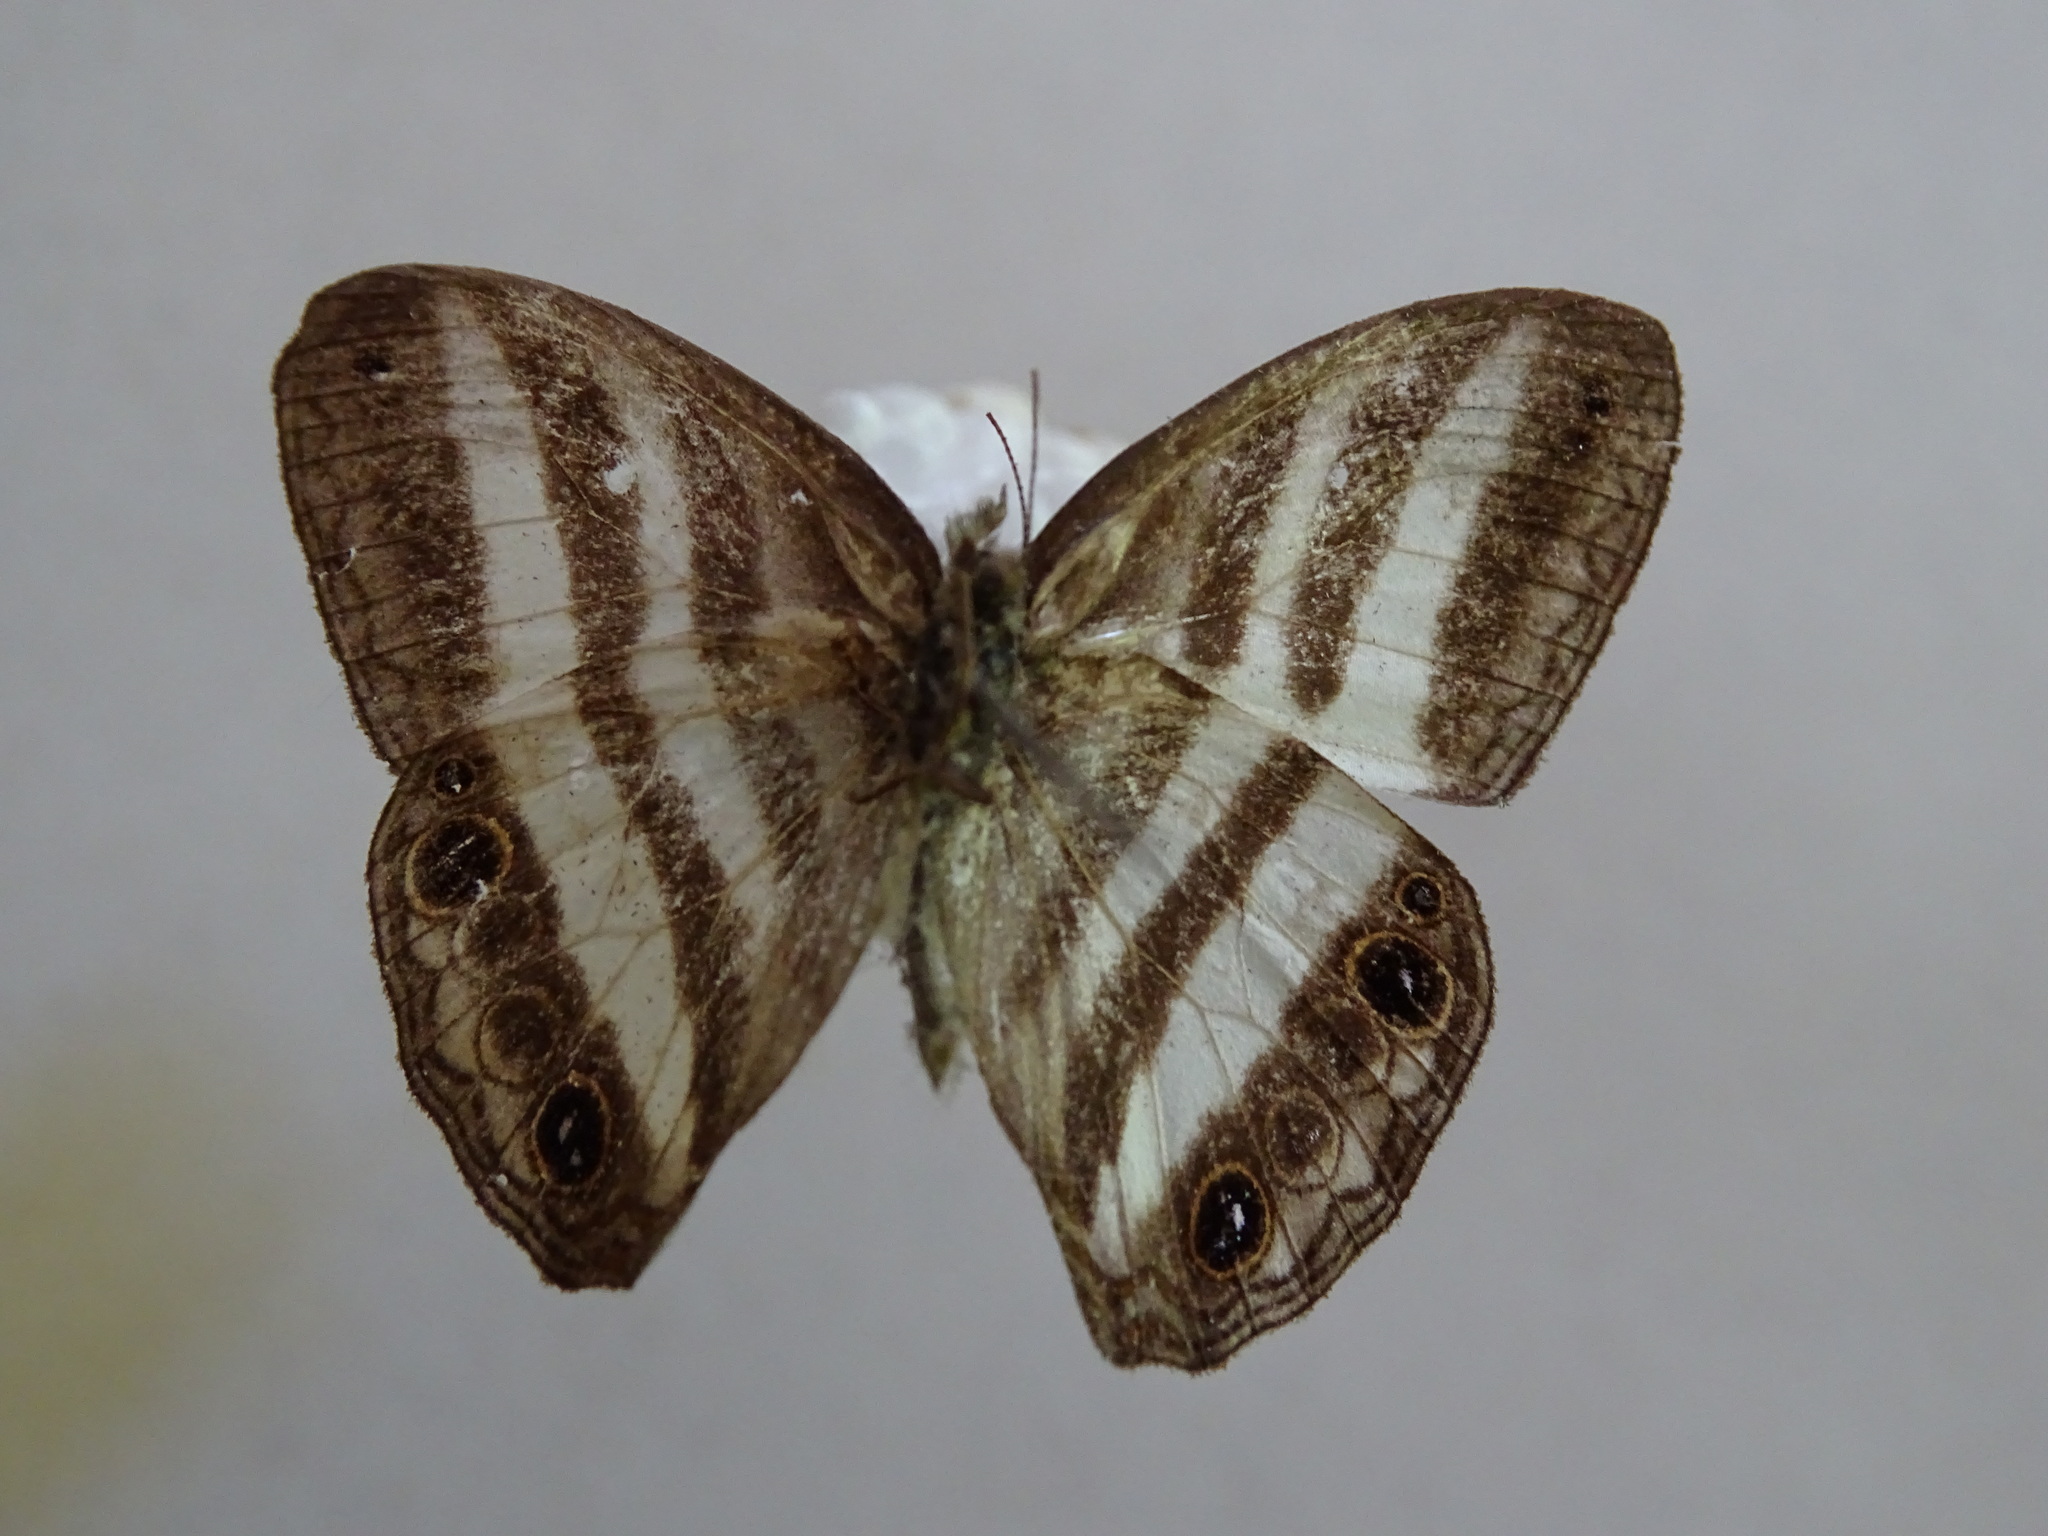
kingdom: Animalia
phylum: Arthropoda
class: Insecta
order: Lepidoptera
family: Nymphalidae
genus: Pareuptychia
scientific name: Pareuptychia hesione
